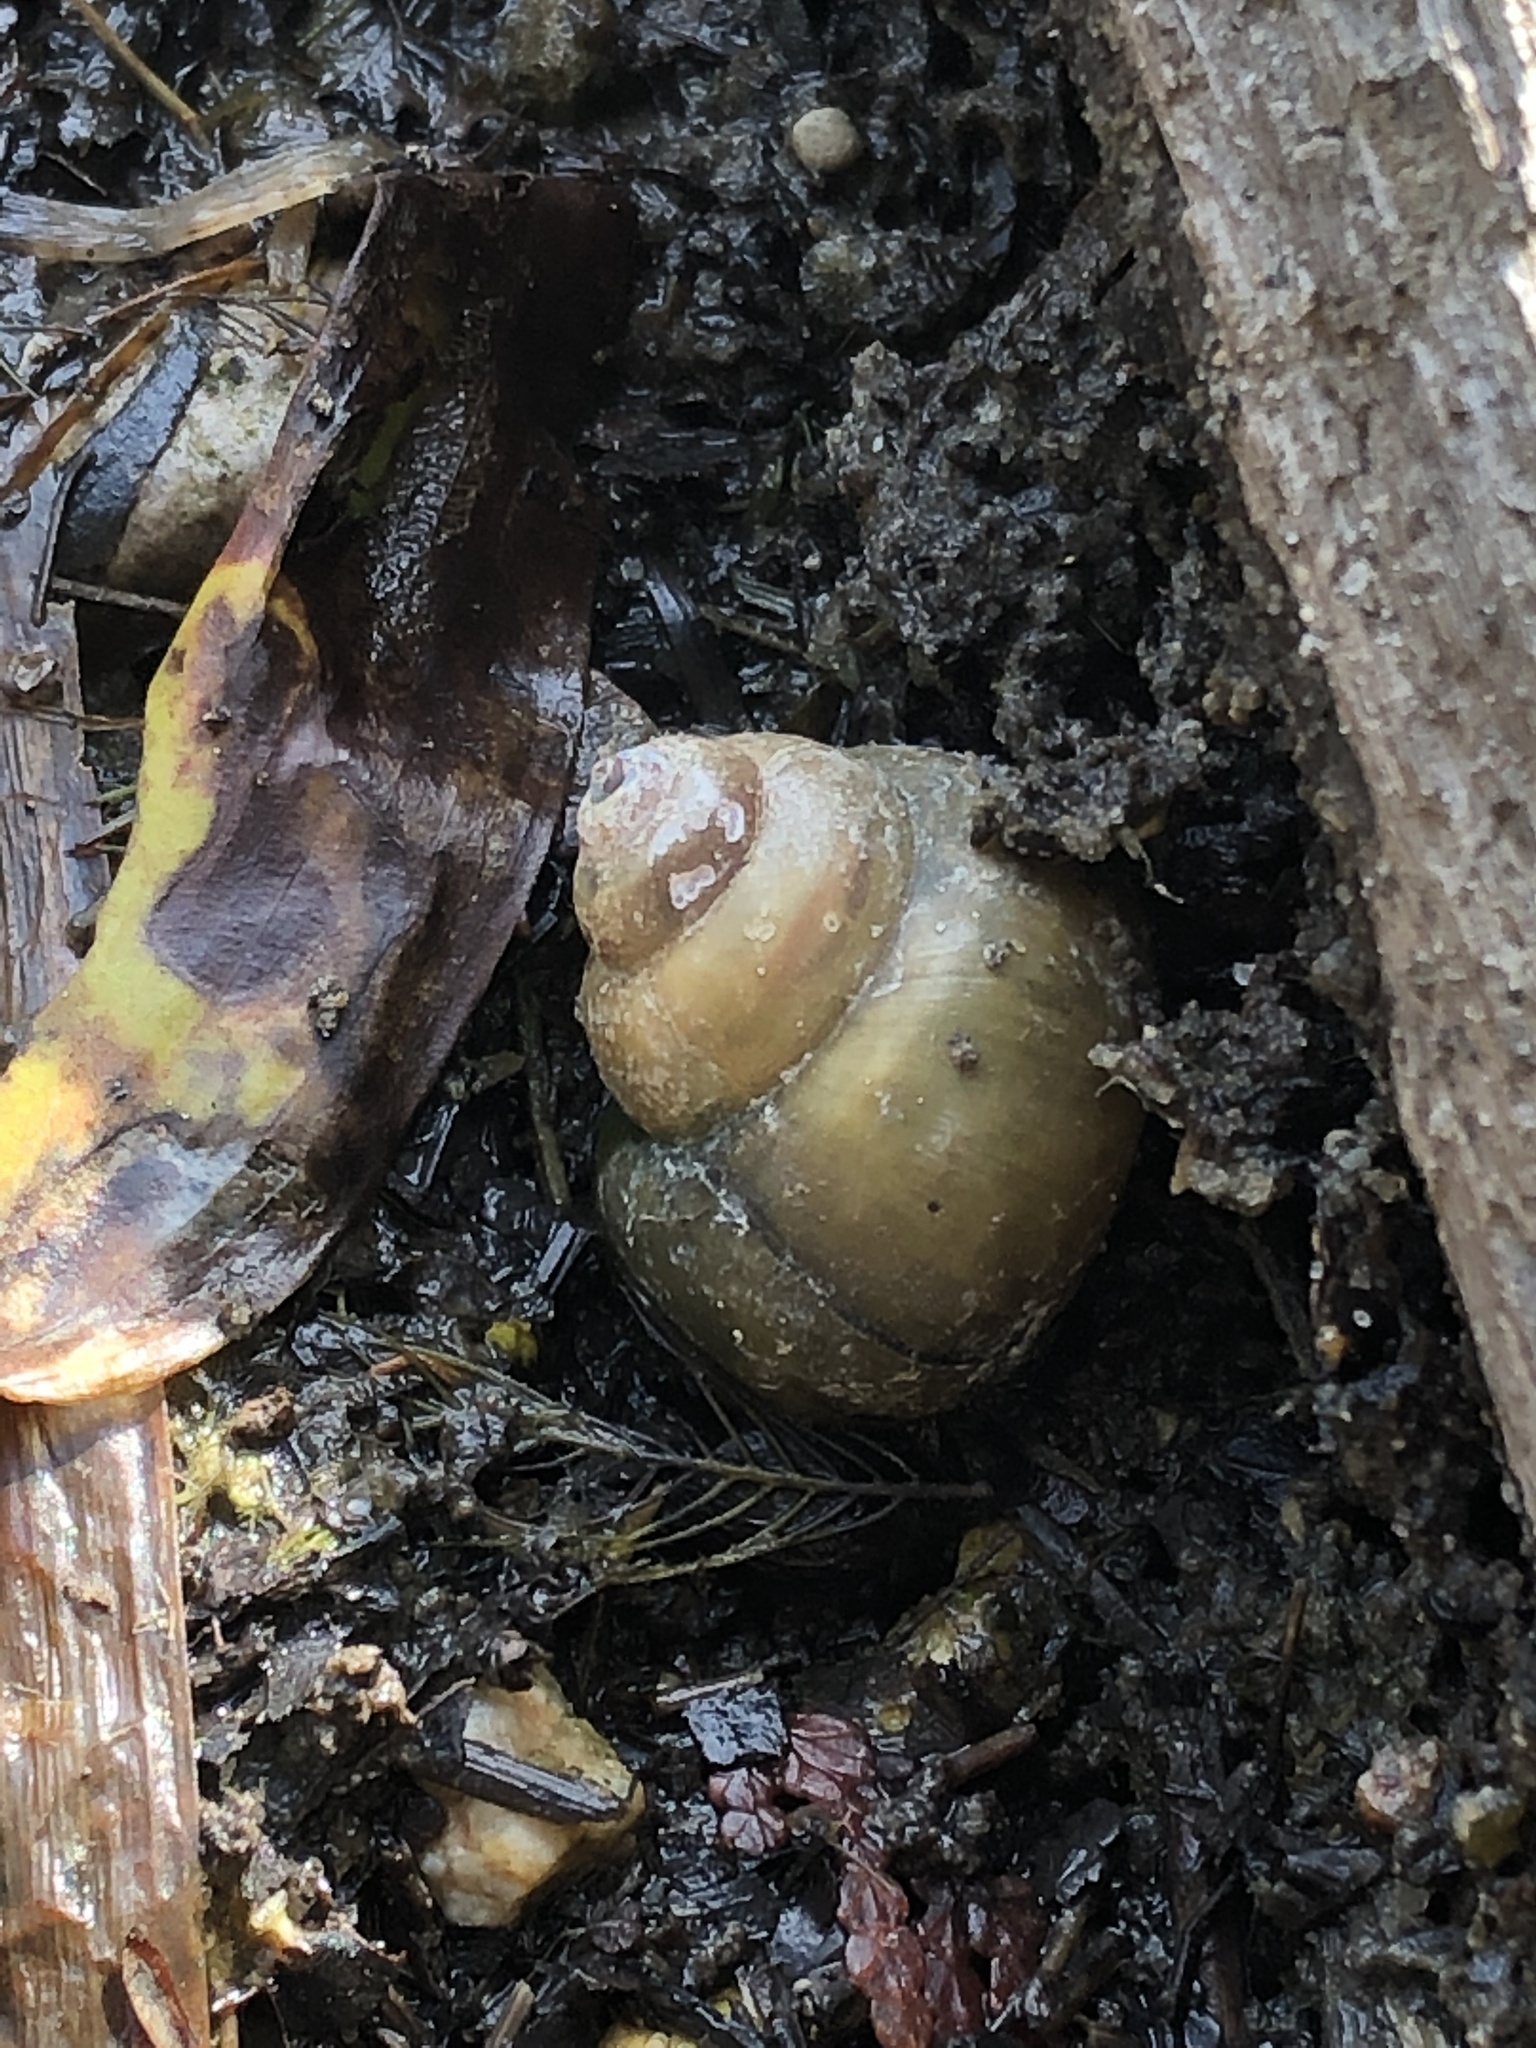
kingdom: Animalia
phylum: Mollusca
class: Gastropoda
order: Architaenioglossa
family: Viviparidae
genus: Cipangopaludina
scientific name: Cipangopaludina chinensis
